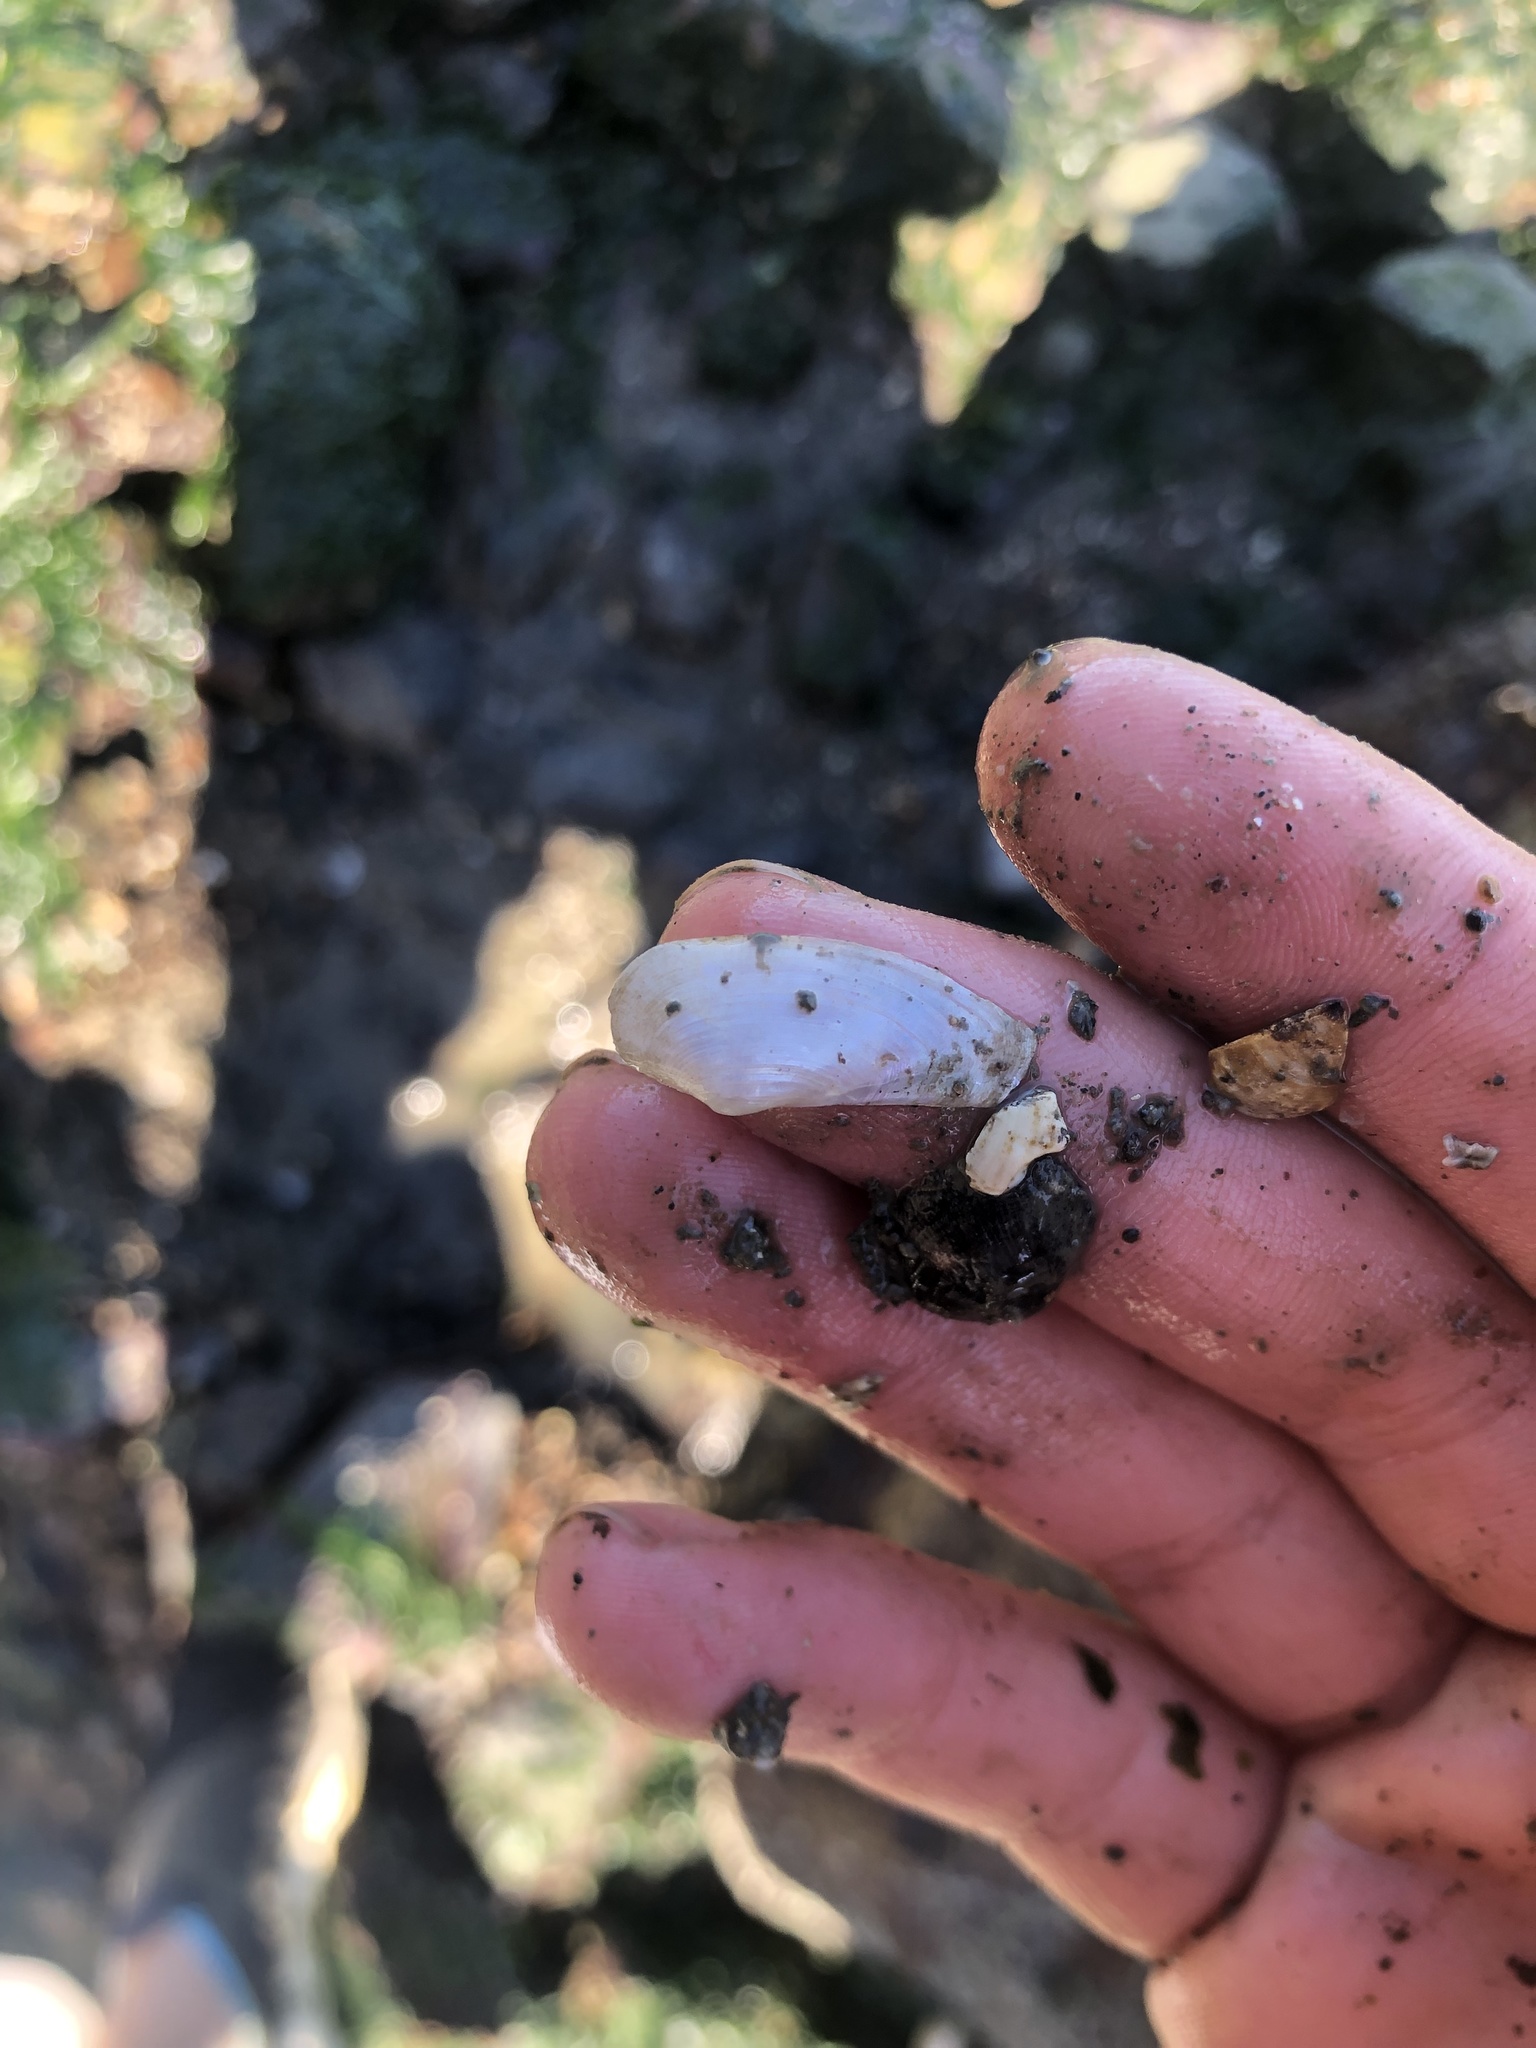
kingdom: Animalia
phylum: Mollusca
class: Bivalvia
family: Lyonsiidae
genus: Lyonsia
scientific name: Lyonsia californica
